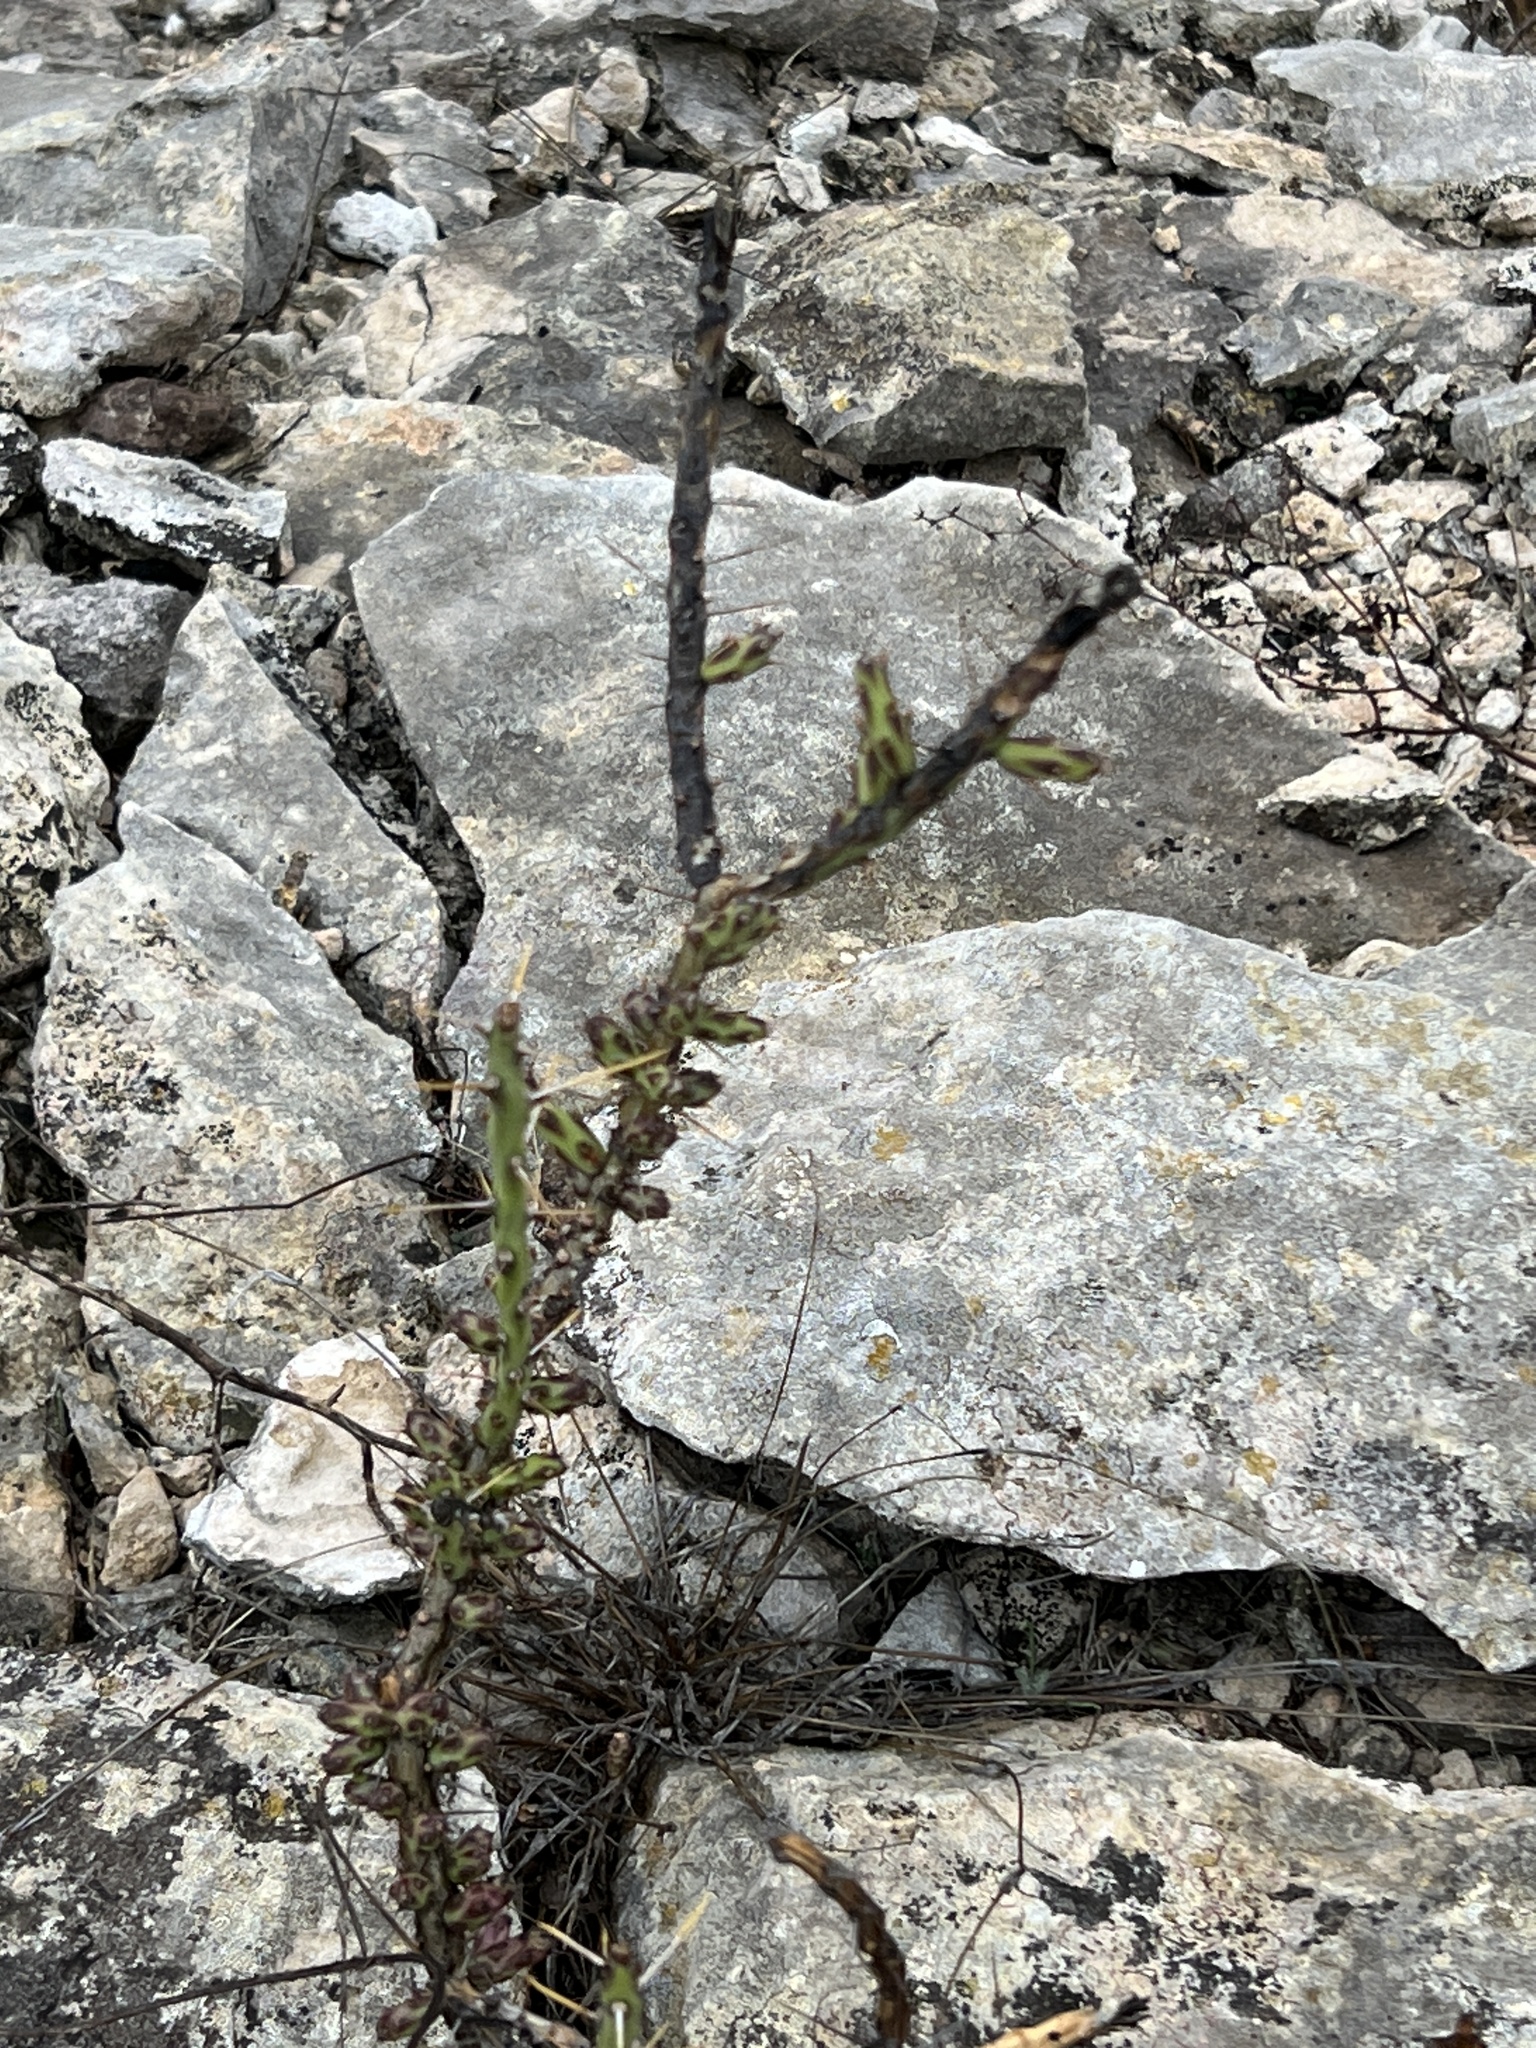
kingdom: Plantae
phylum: Tracheophyta
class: Magnoliopsida
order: Caryophyllales
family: Cactaceae
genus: Cylindropuntia
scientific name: Cylindropuntia leptocaulis
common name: Christmas cactus
